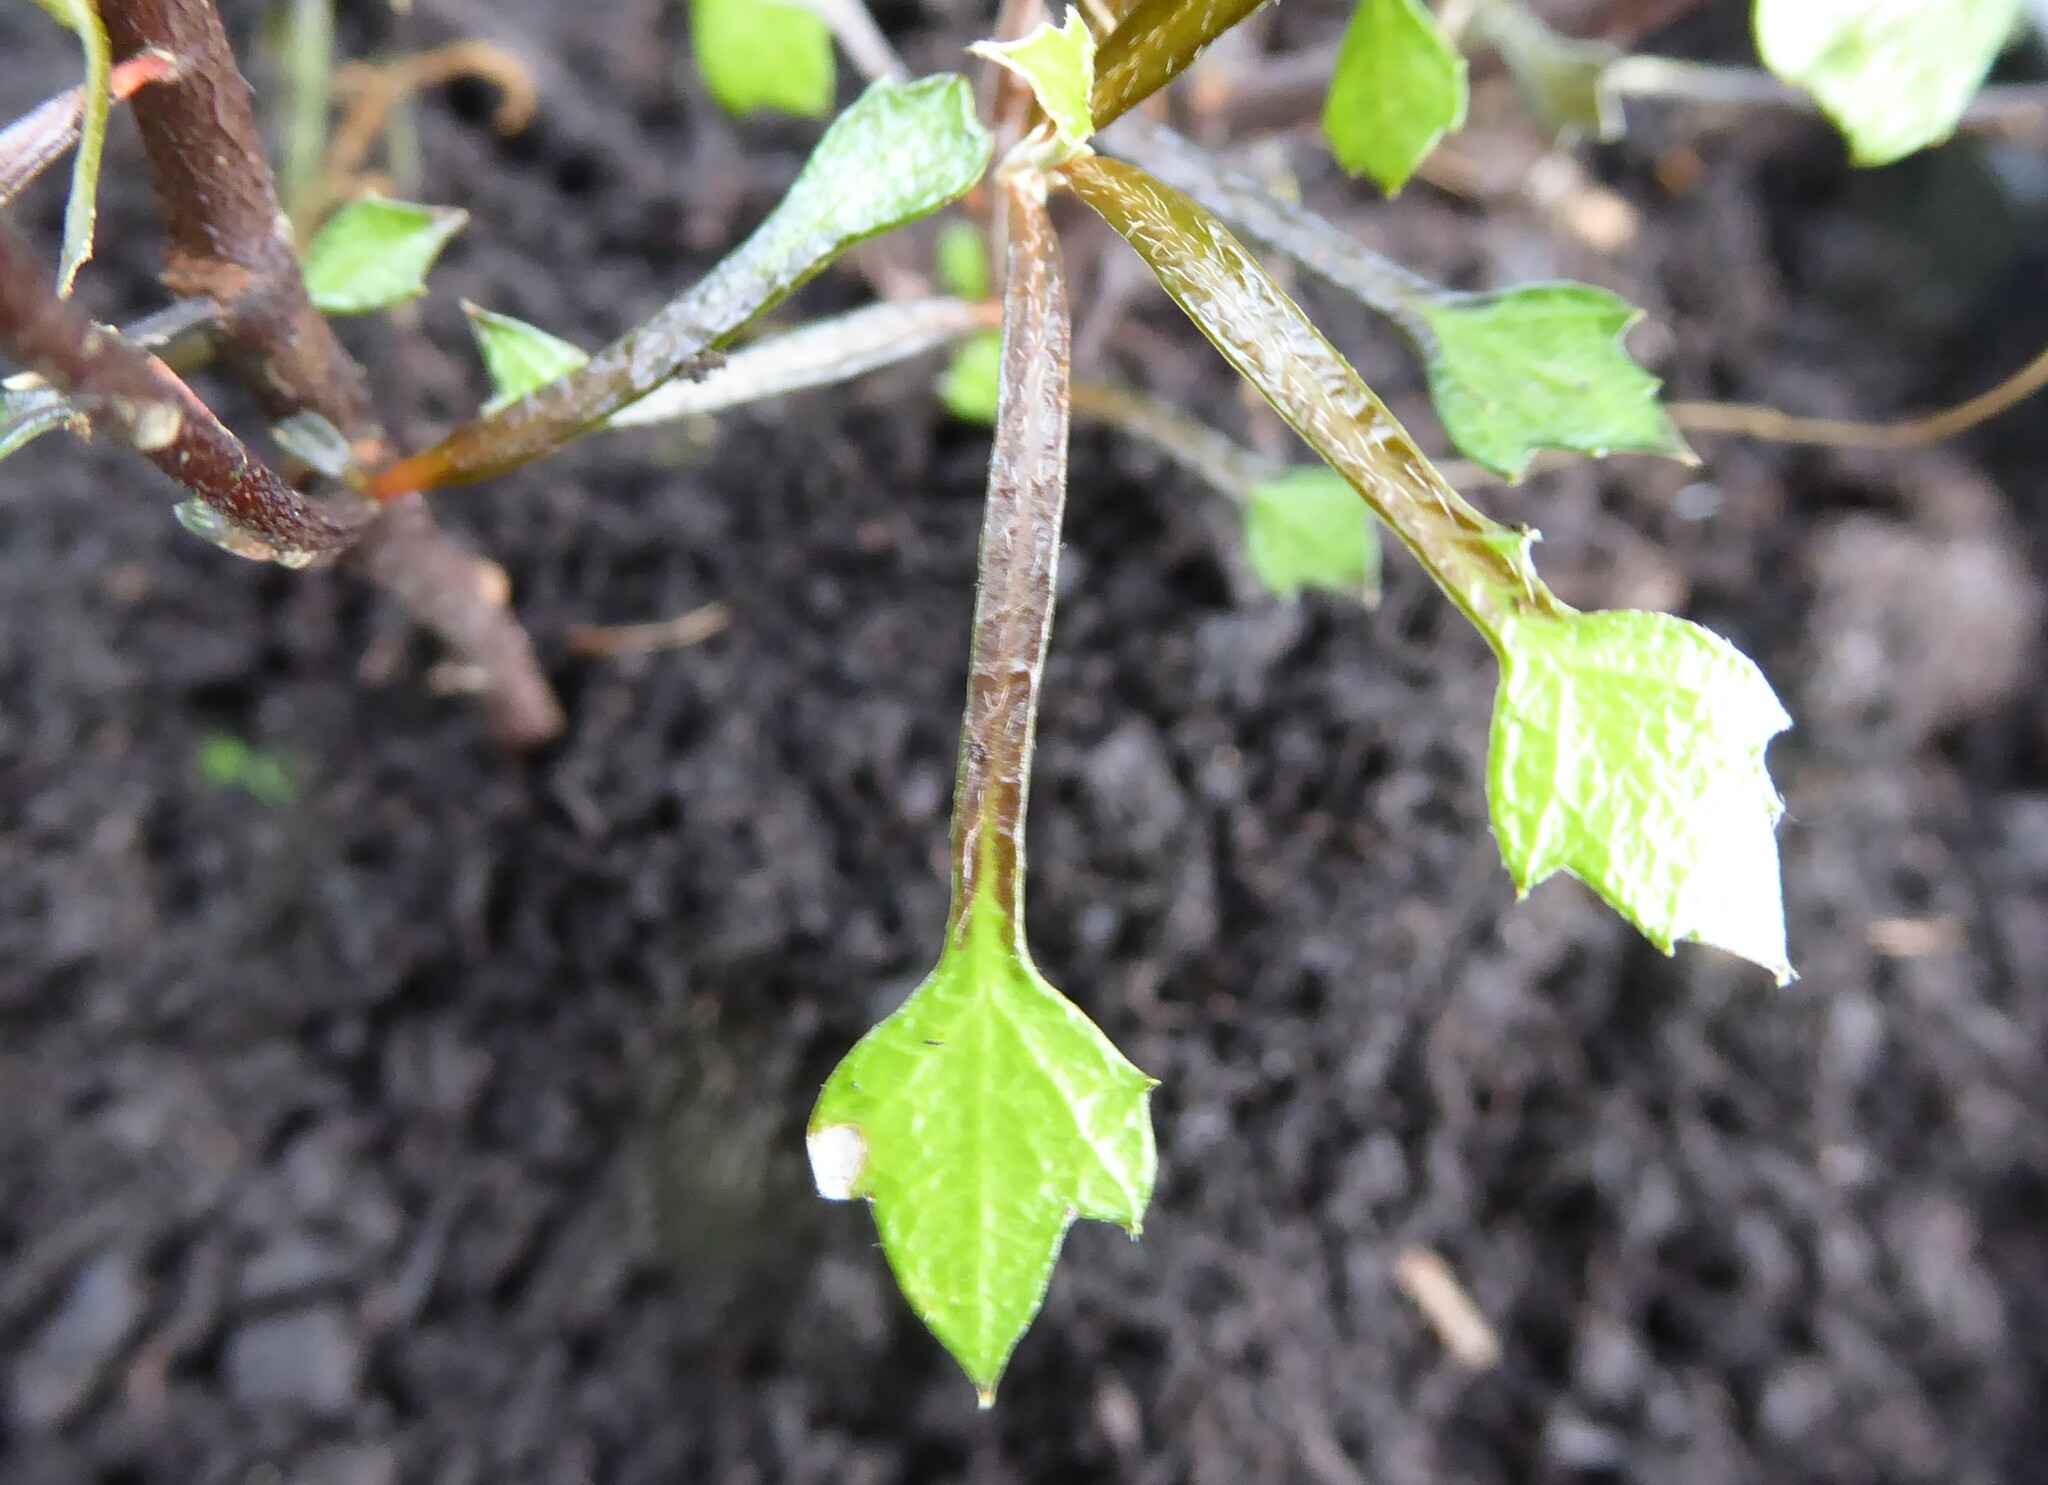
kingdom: Plantae
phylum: Tracheophyta
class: Magnoliopsida
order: Asterales
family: Argophyllaceae
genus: Corokia
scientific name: Corokia cotoneaster
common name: Wire nettingbush
